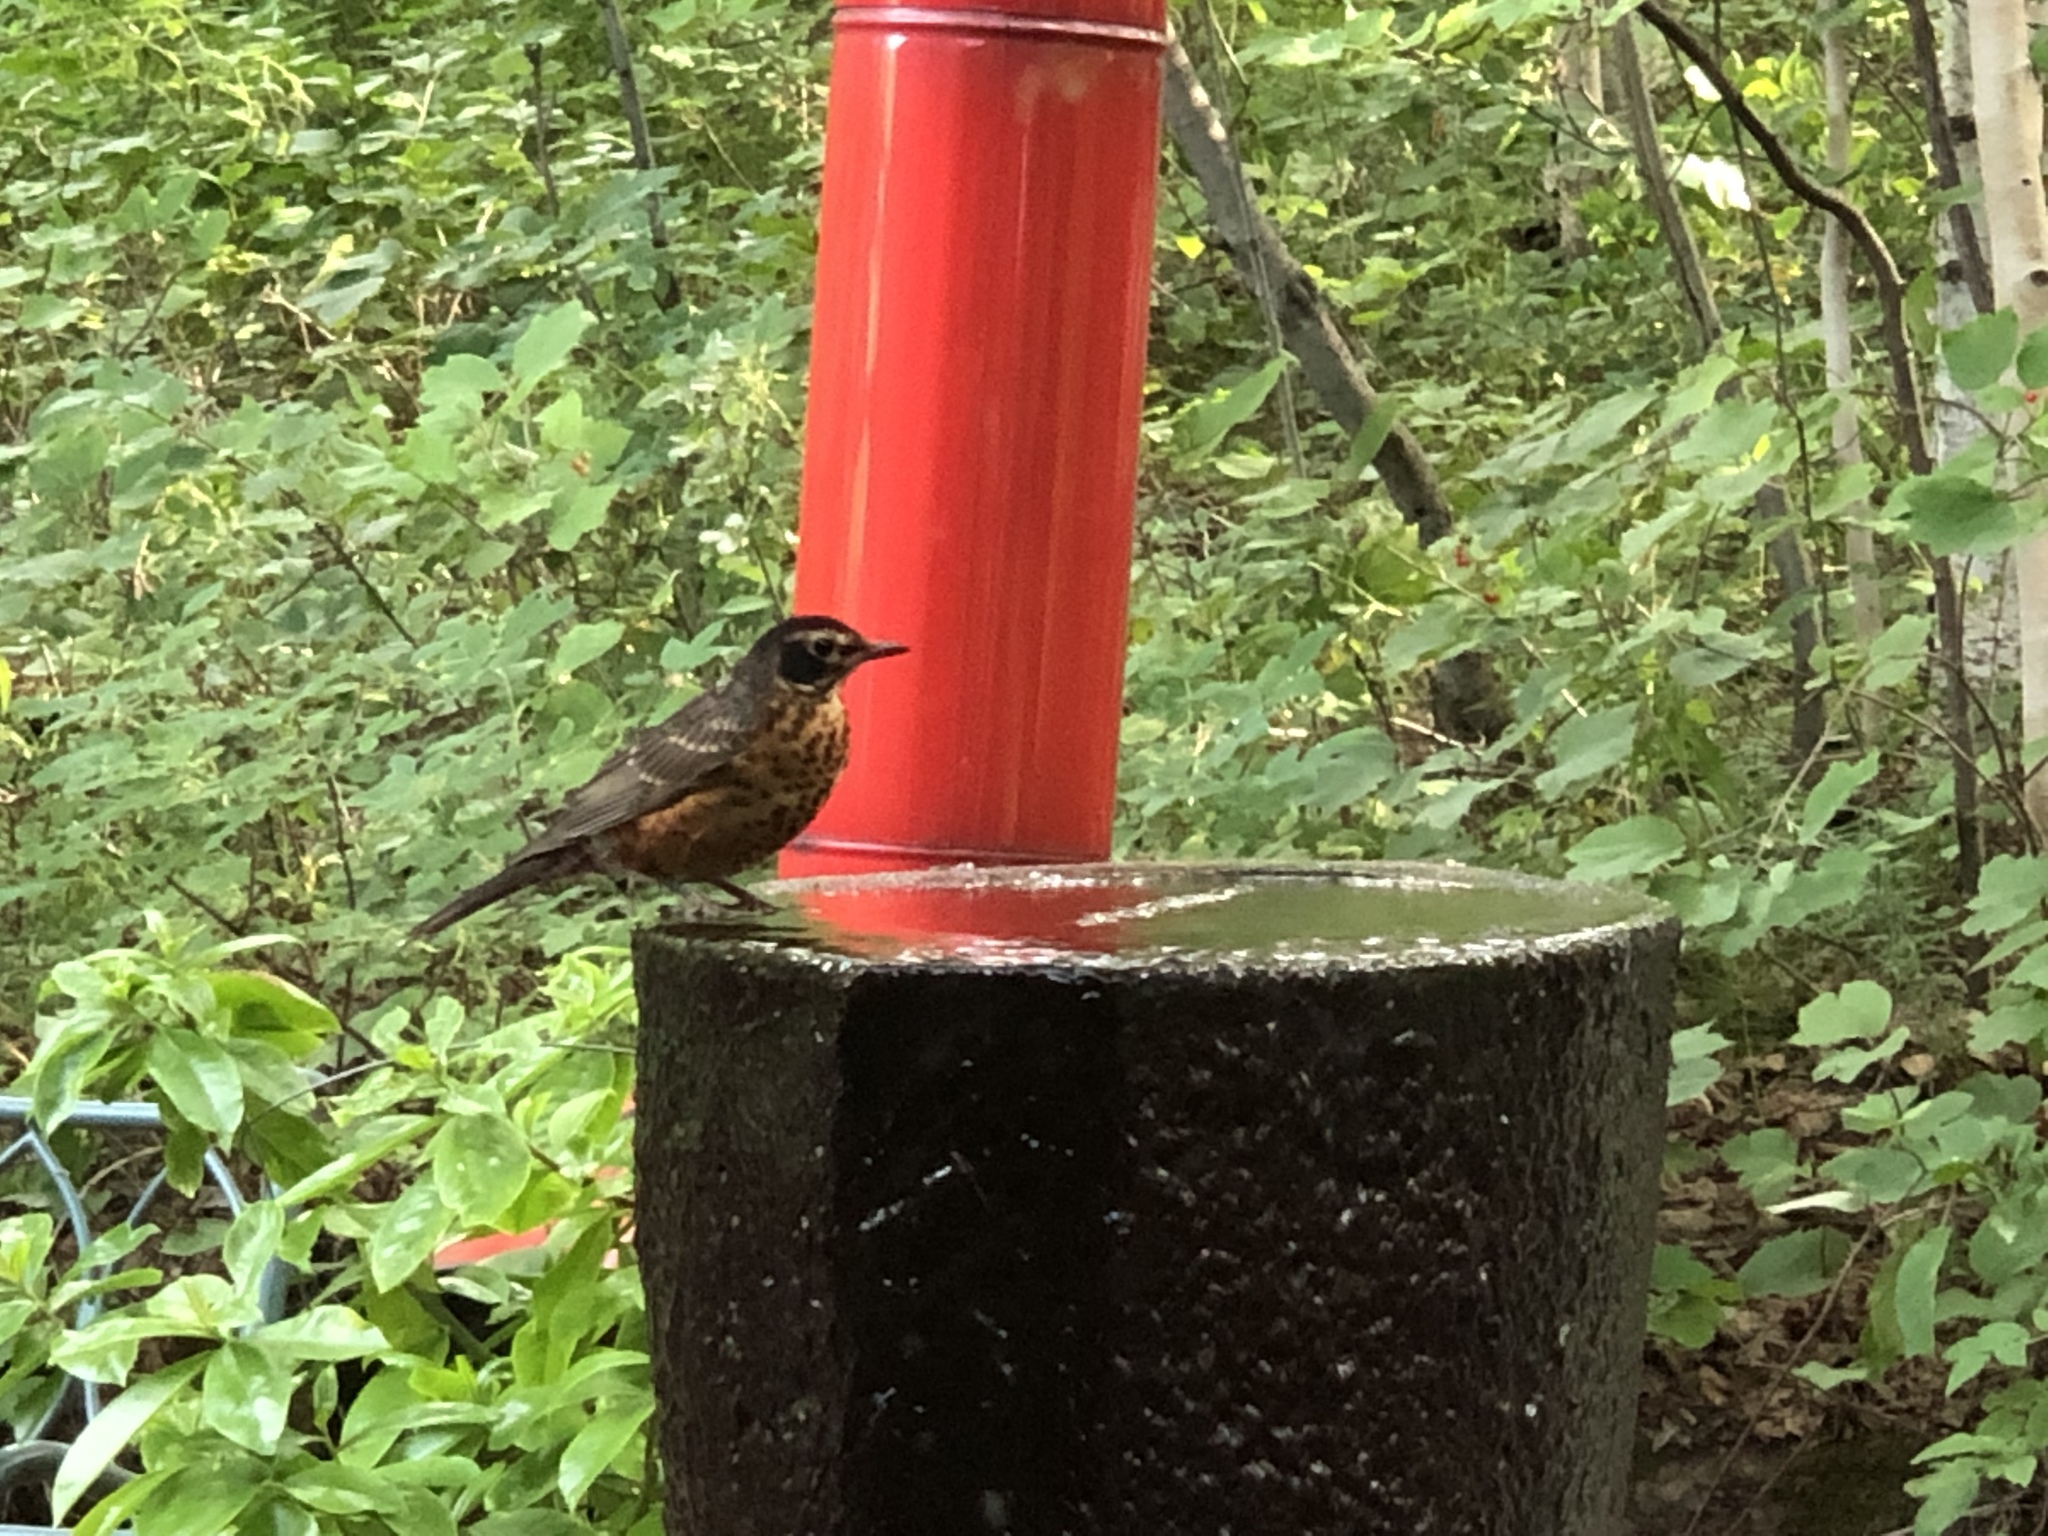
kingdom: Animalia
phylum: Chordata
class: Aves
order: Passeriformes
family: Turdidae
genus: Turdus
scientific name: Turdus migratorius
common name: American robin
